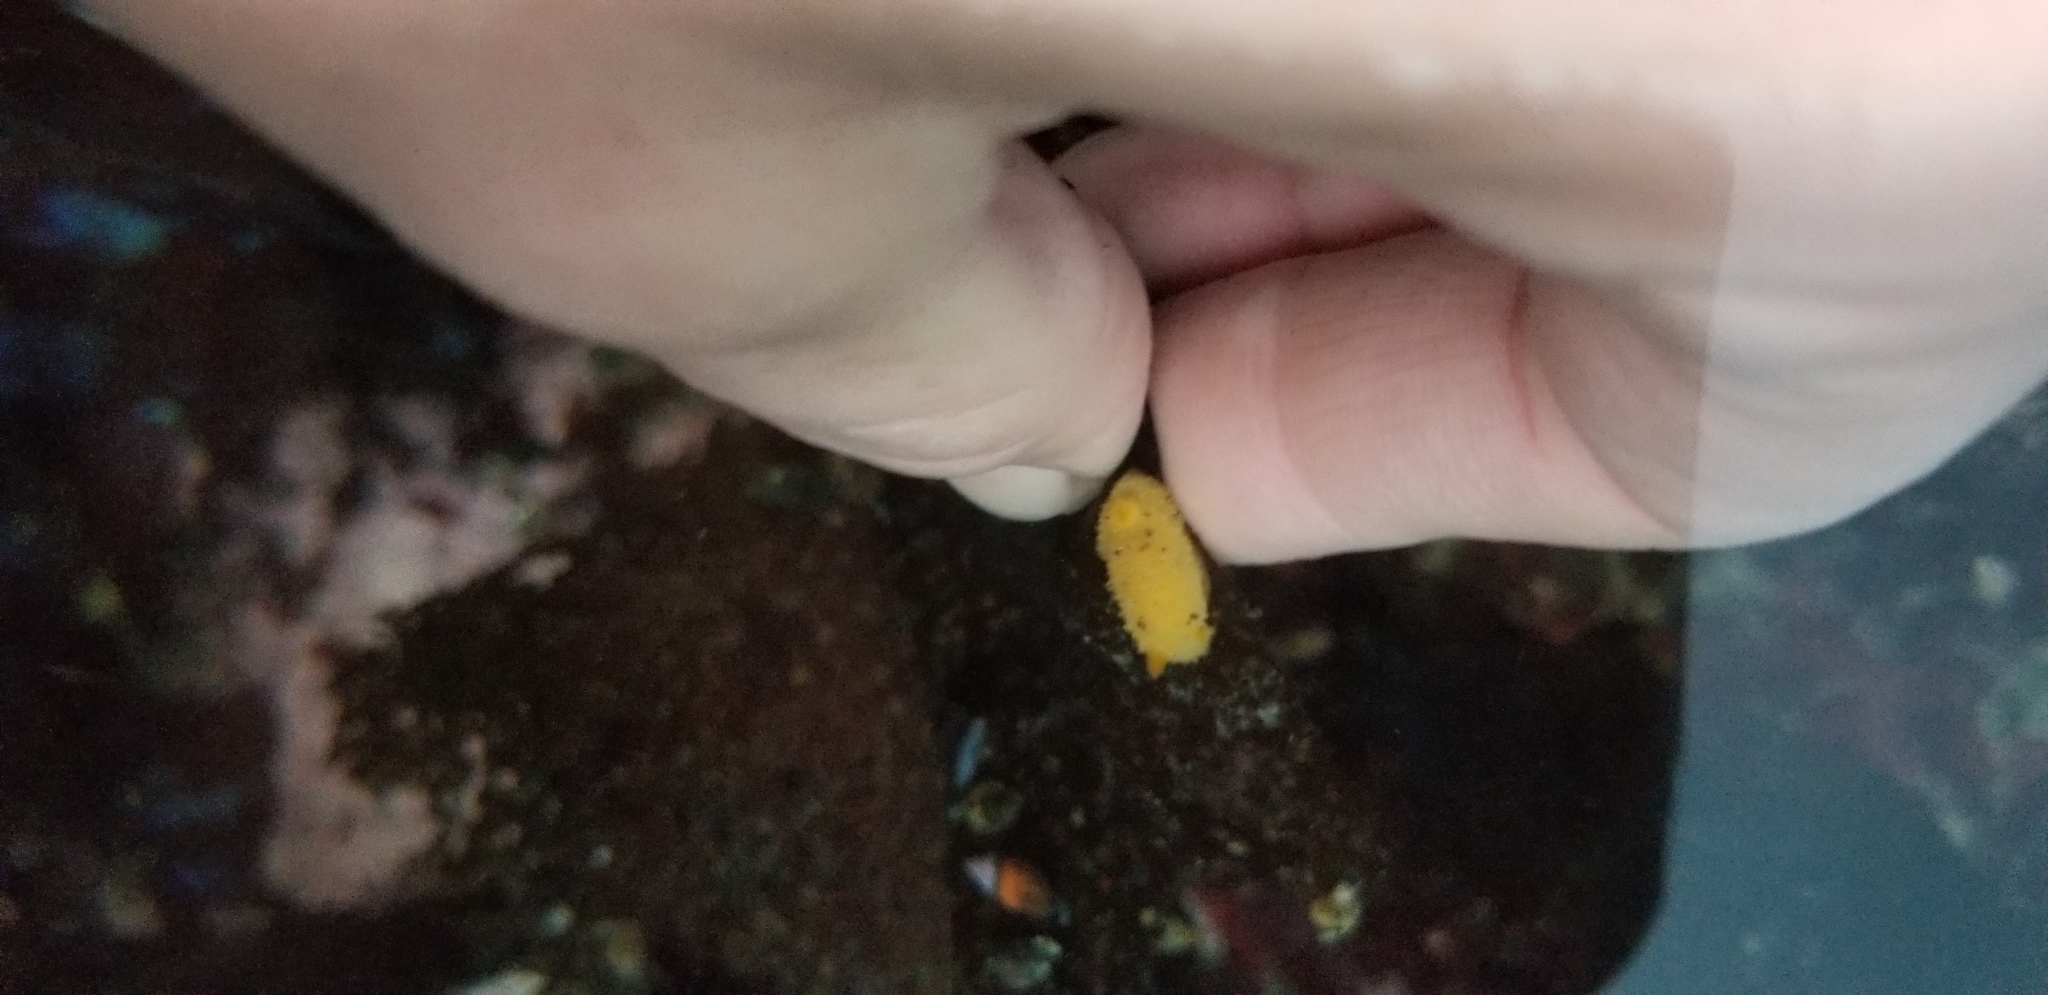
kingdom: Animalia
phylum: Mollusca
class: Gastropoda
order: Nudibranchia
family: Dorididae
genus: Doris
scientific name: Doris montereyensis
